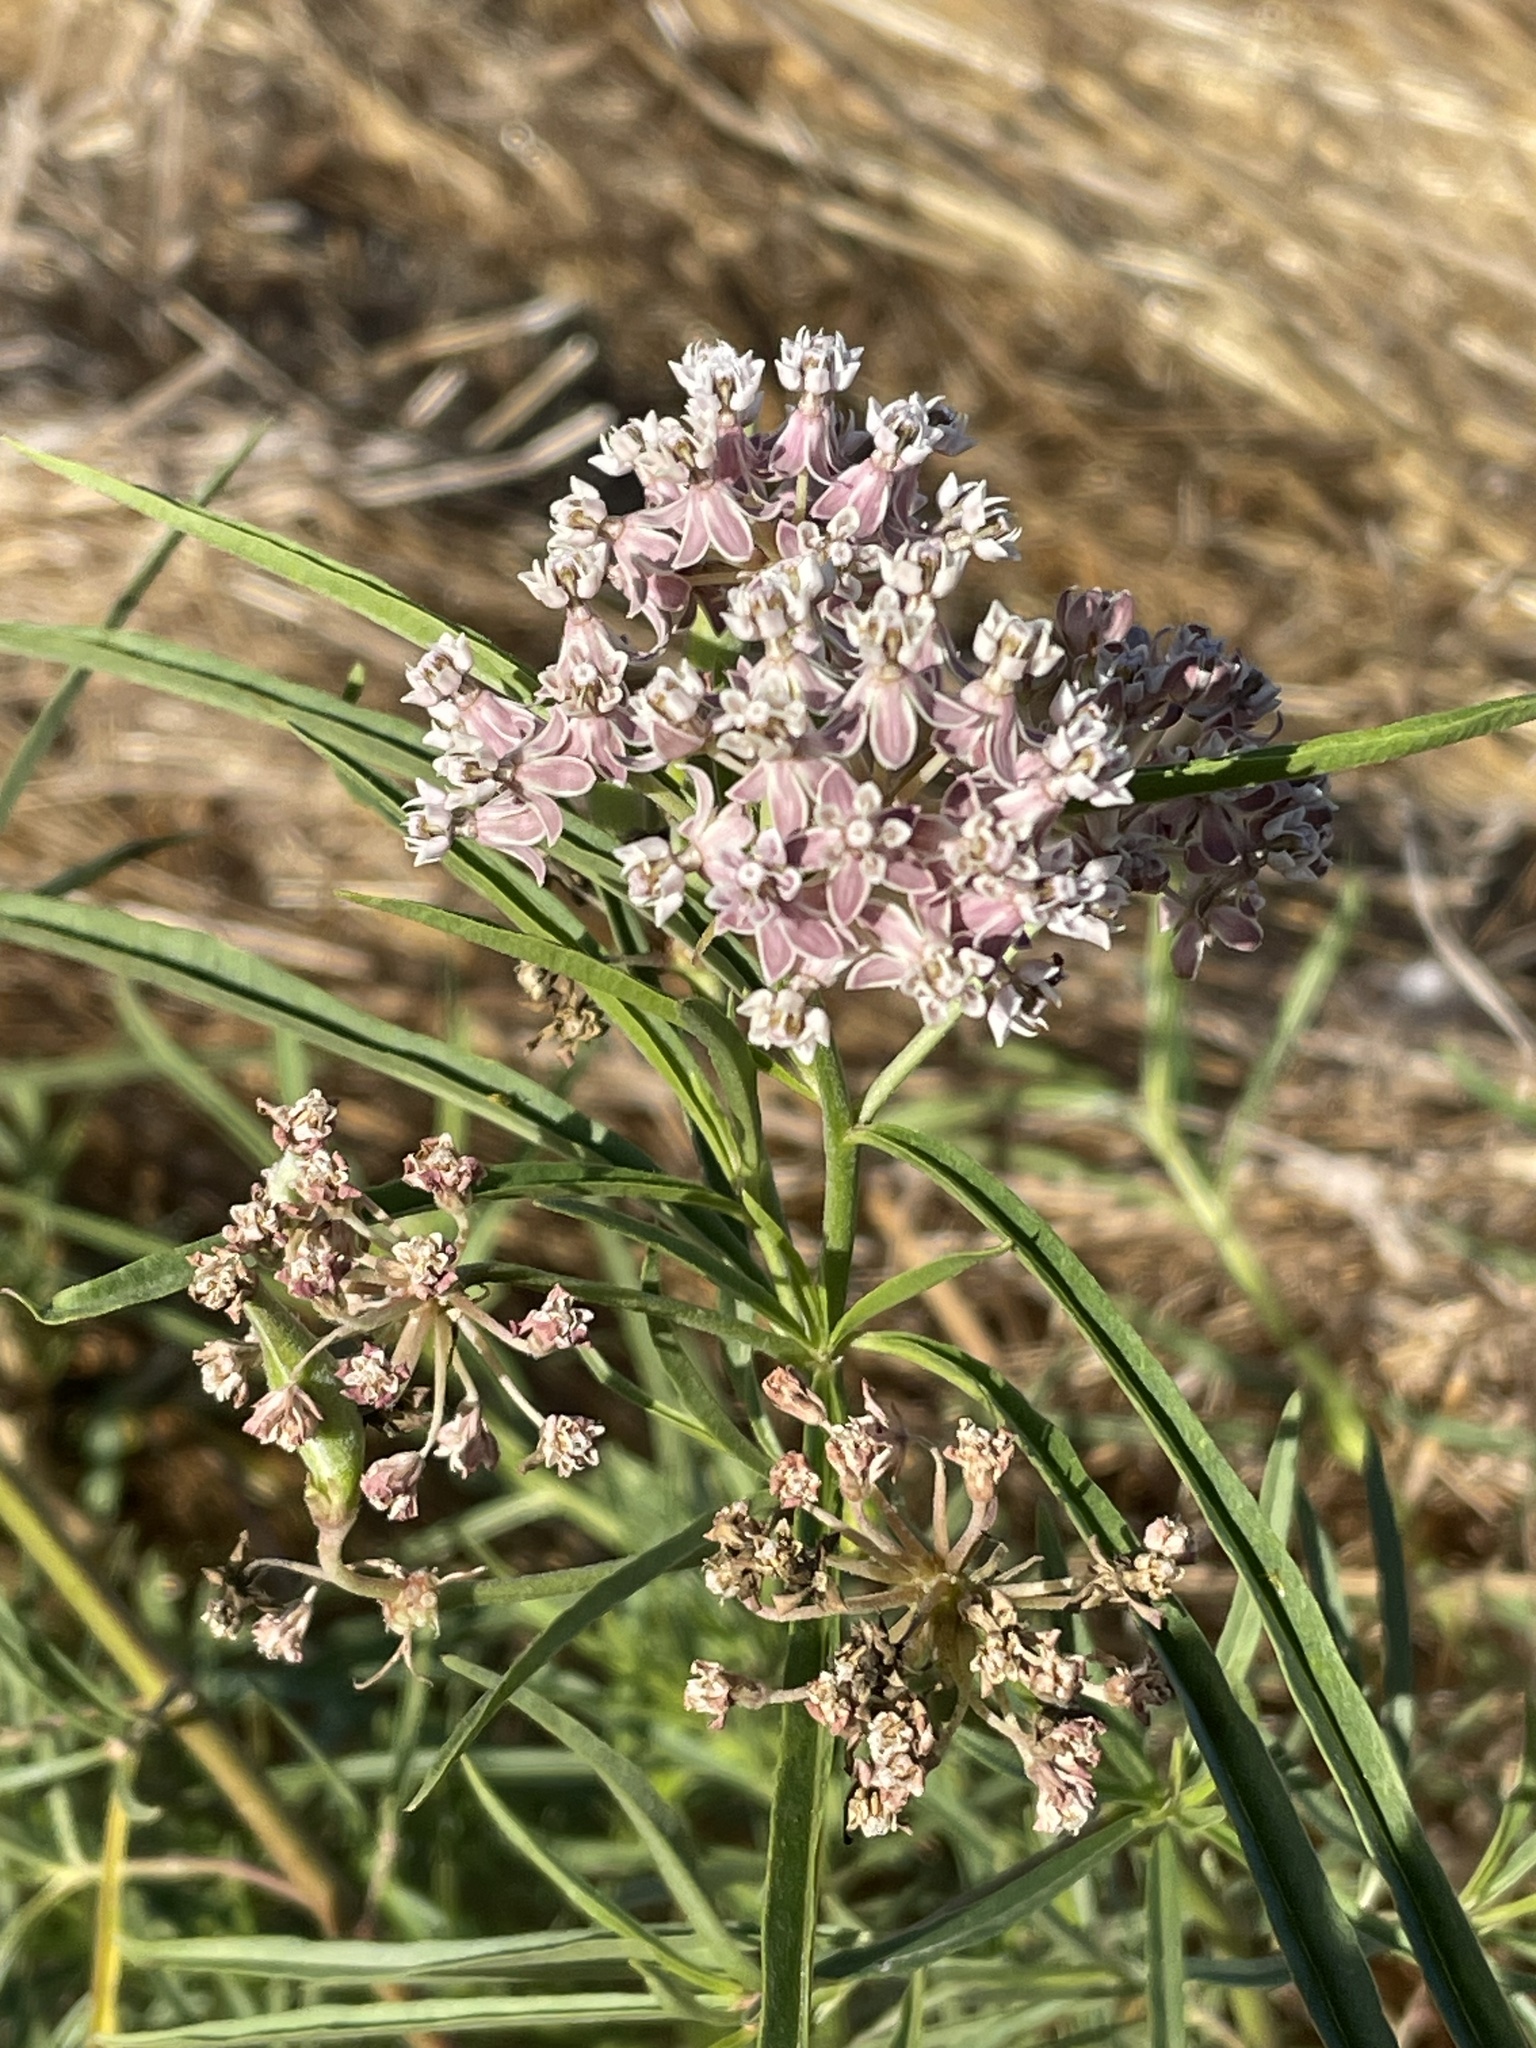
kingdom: Plantae
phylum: Tracheophyta
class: Magnoliopsida
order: Gentianales
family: Apocynaceae
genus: Asclepias
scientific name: Asclepias fascicularis
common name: Mexican milkweed
